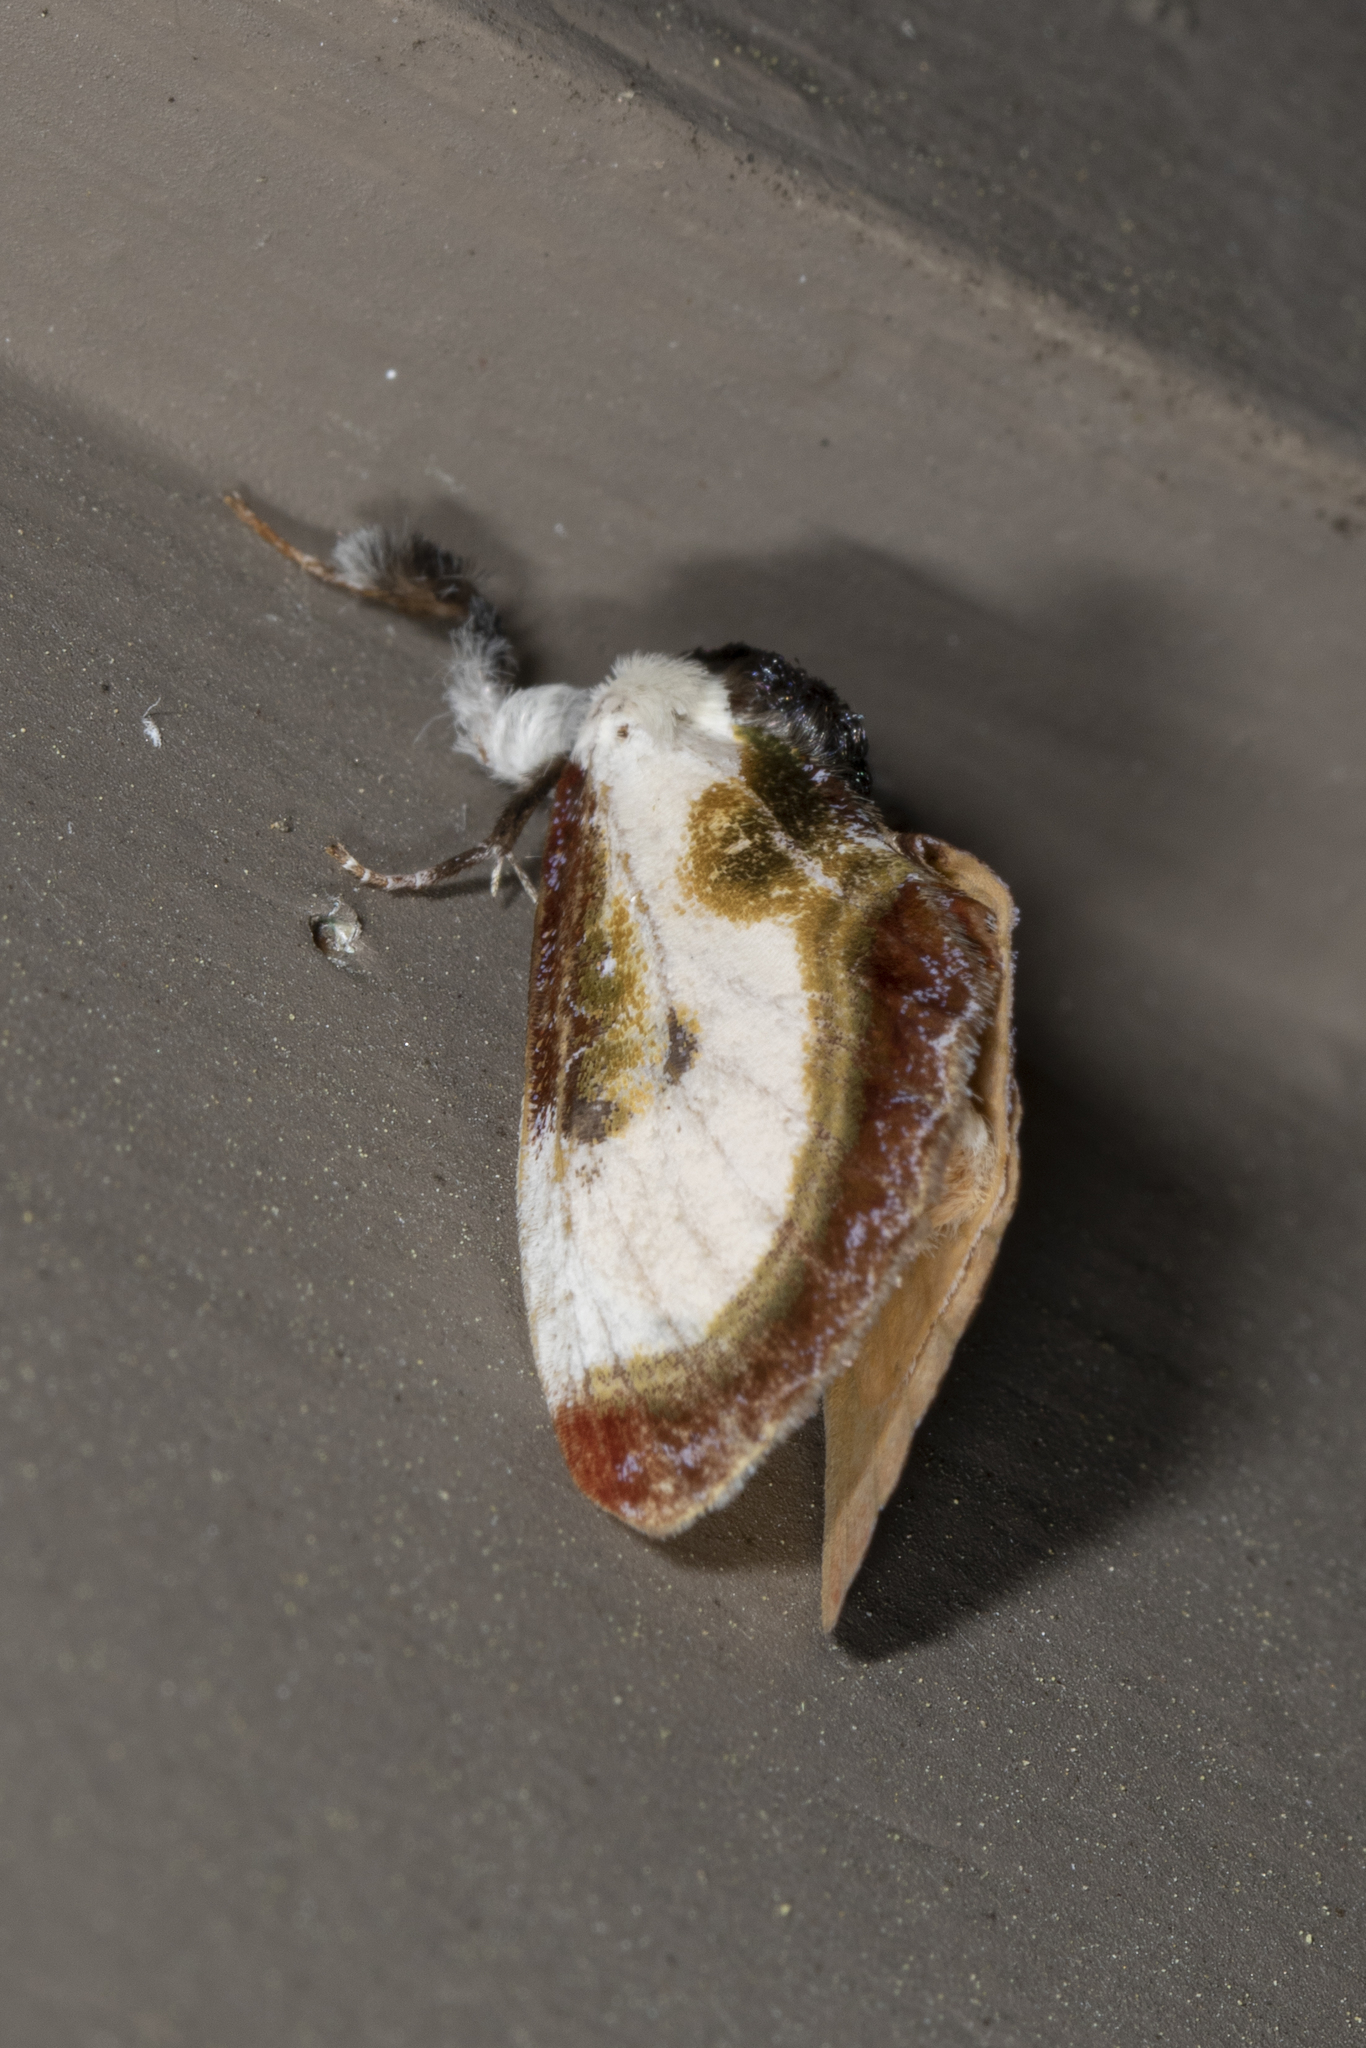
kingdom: Animalia
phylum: Arthropoda
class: Insecta
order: Lepidoptera
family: Noctuidae
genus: Eudryas
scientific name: Eudryas grata
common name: Beautiful wood-nymph
